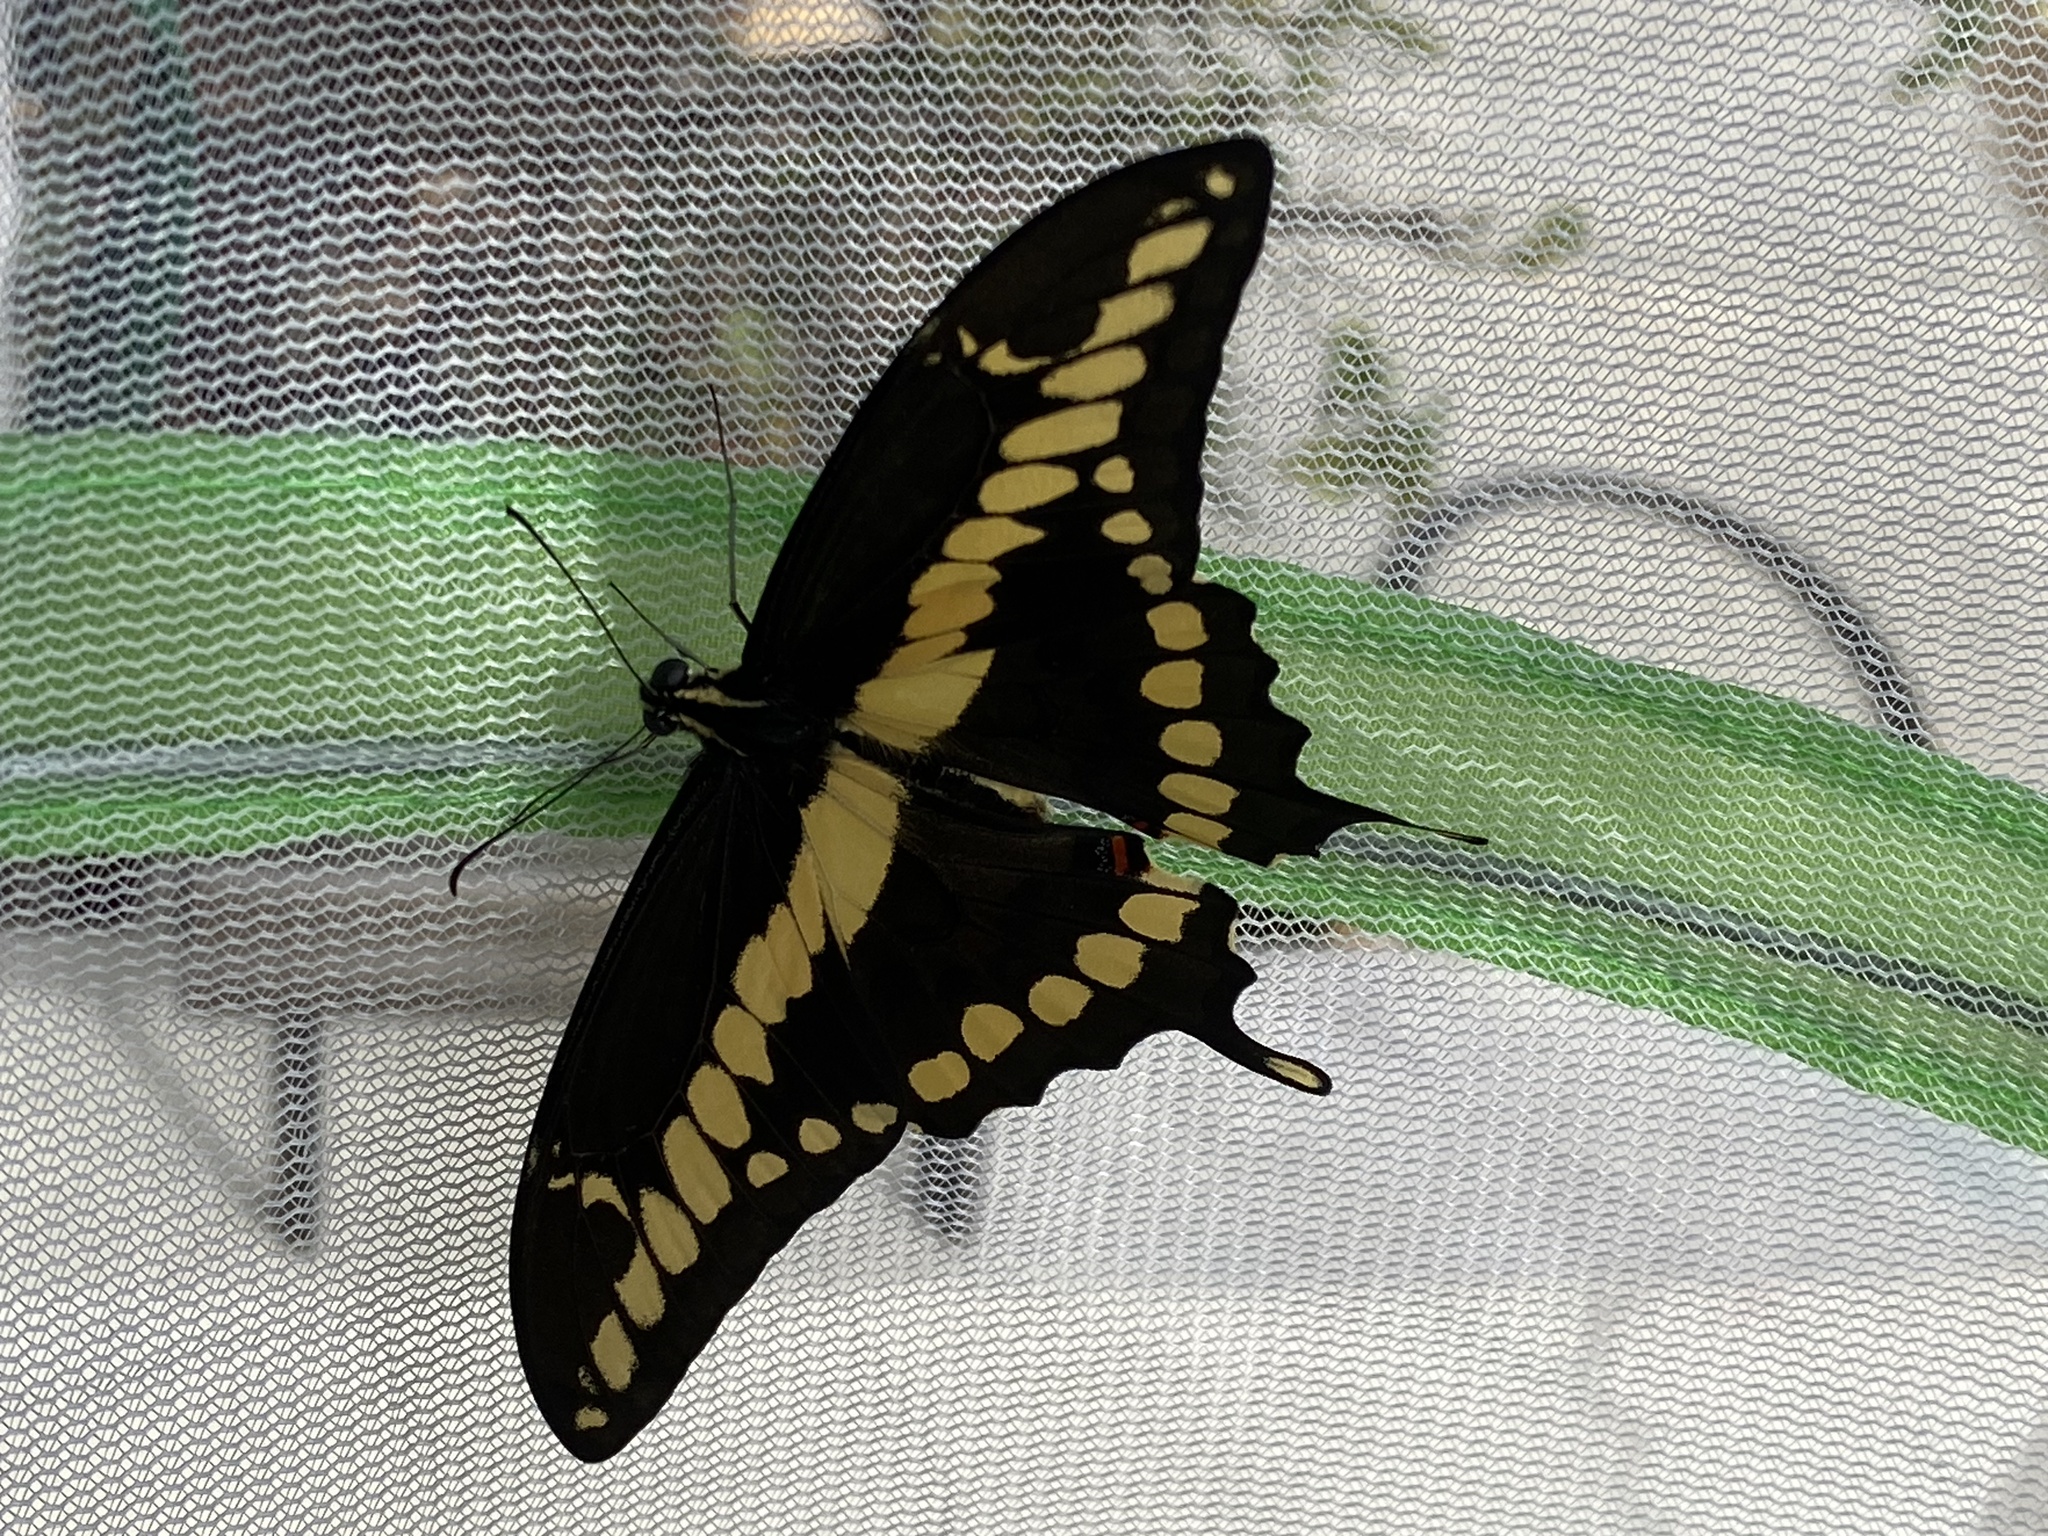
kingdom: Animalia
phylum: Arthropoda
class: Insecta
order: Lepidoptera
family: Papilionidae
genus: Papilio
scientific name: Papilio rumiko
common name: Western giant swallowtail
